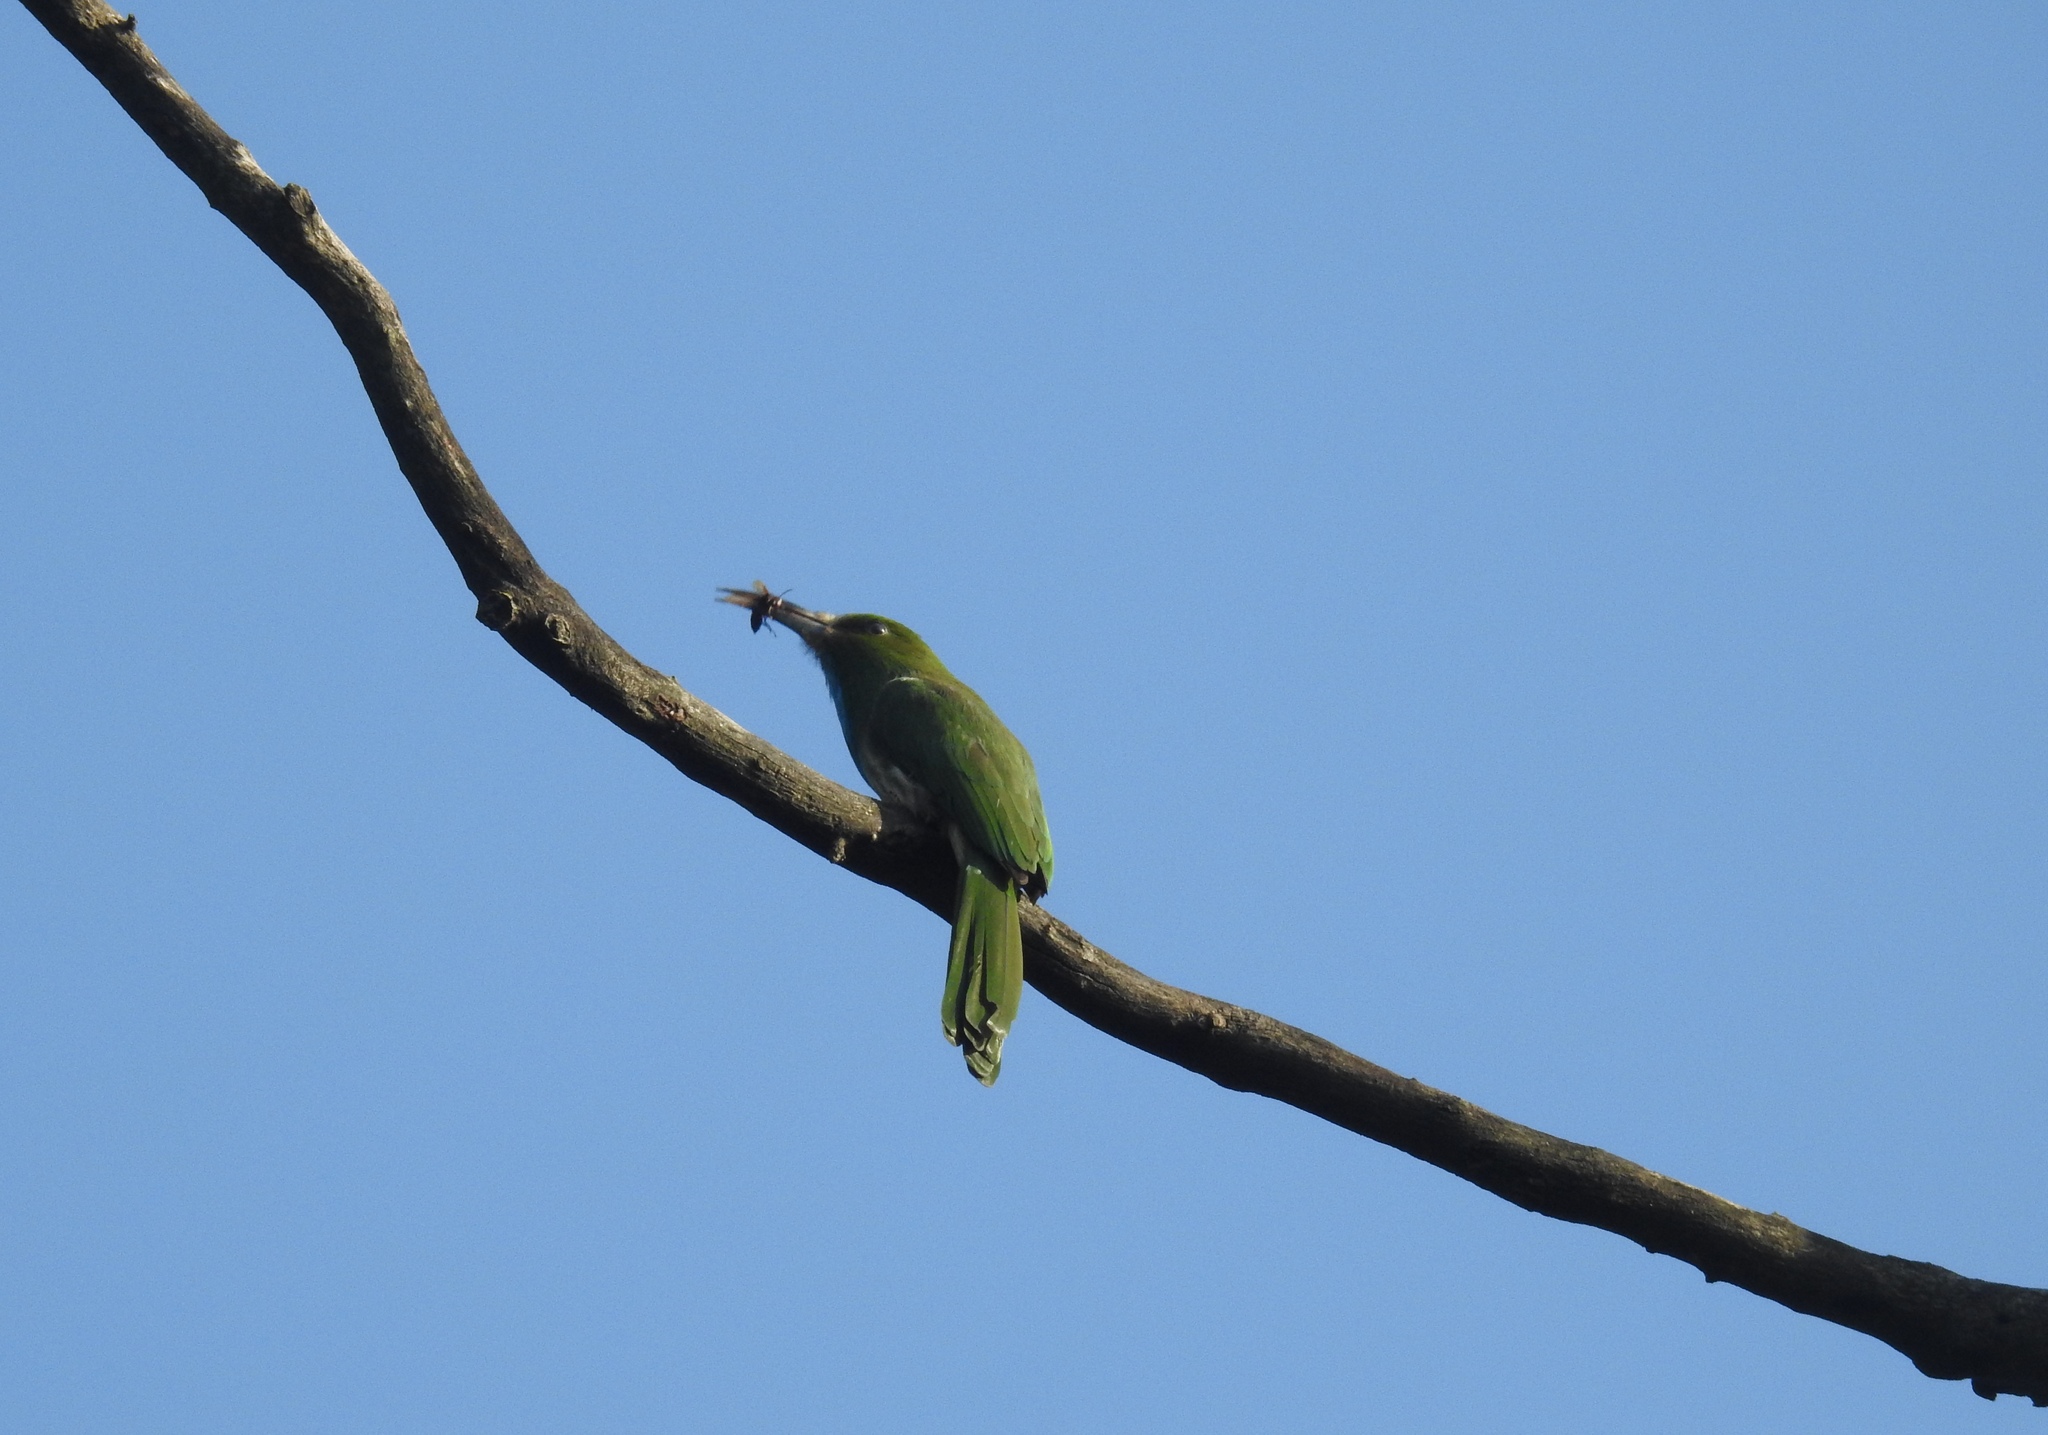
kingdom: Animalia
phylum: Chordata
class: Aves
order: Coraciiformes
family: Meropidae
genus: Nyctyornis
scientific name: Nyctyornis athertoni
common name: Blue-bearded bee-eater
